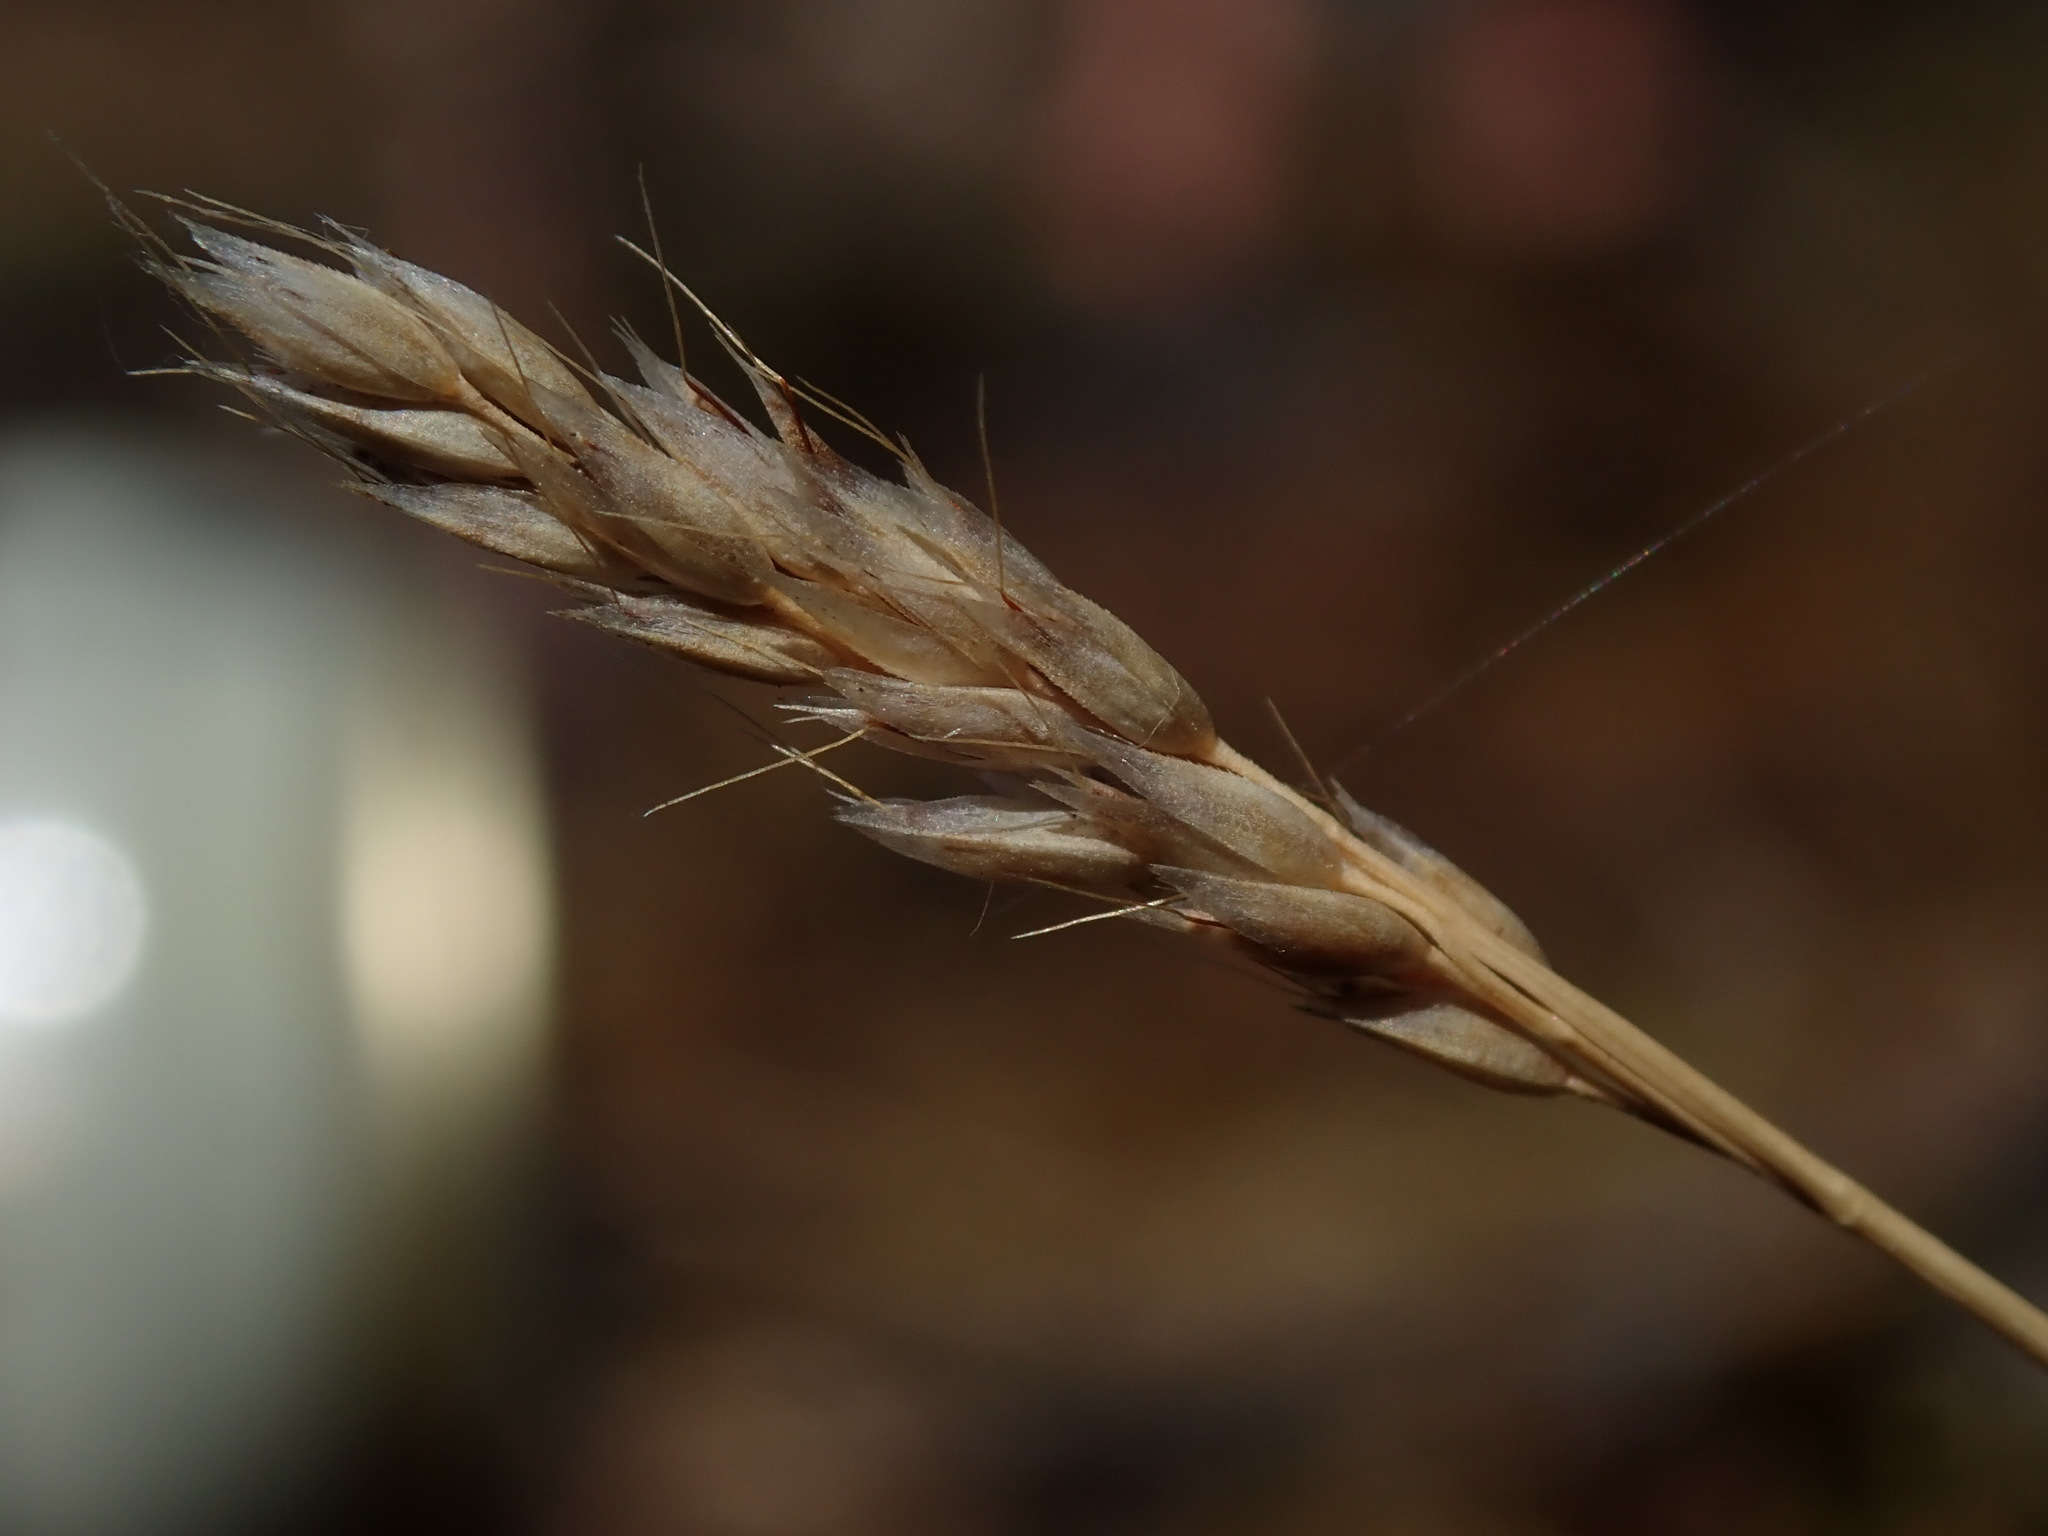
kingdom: Plantae
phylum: Tracheophyta
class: Liliopsida
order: Poales
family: Poaceae
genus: Aira
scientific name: Aira praecox
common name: Early hair-grass
